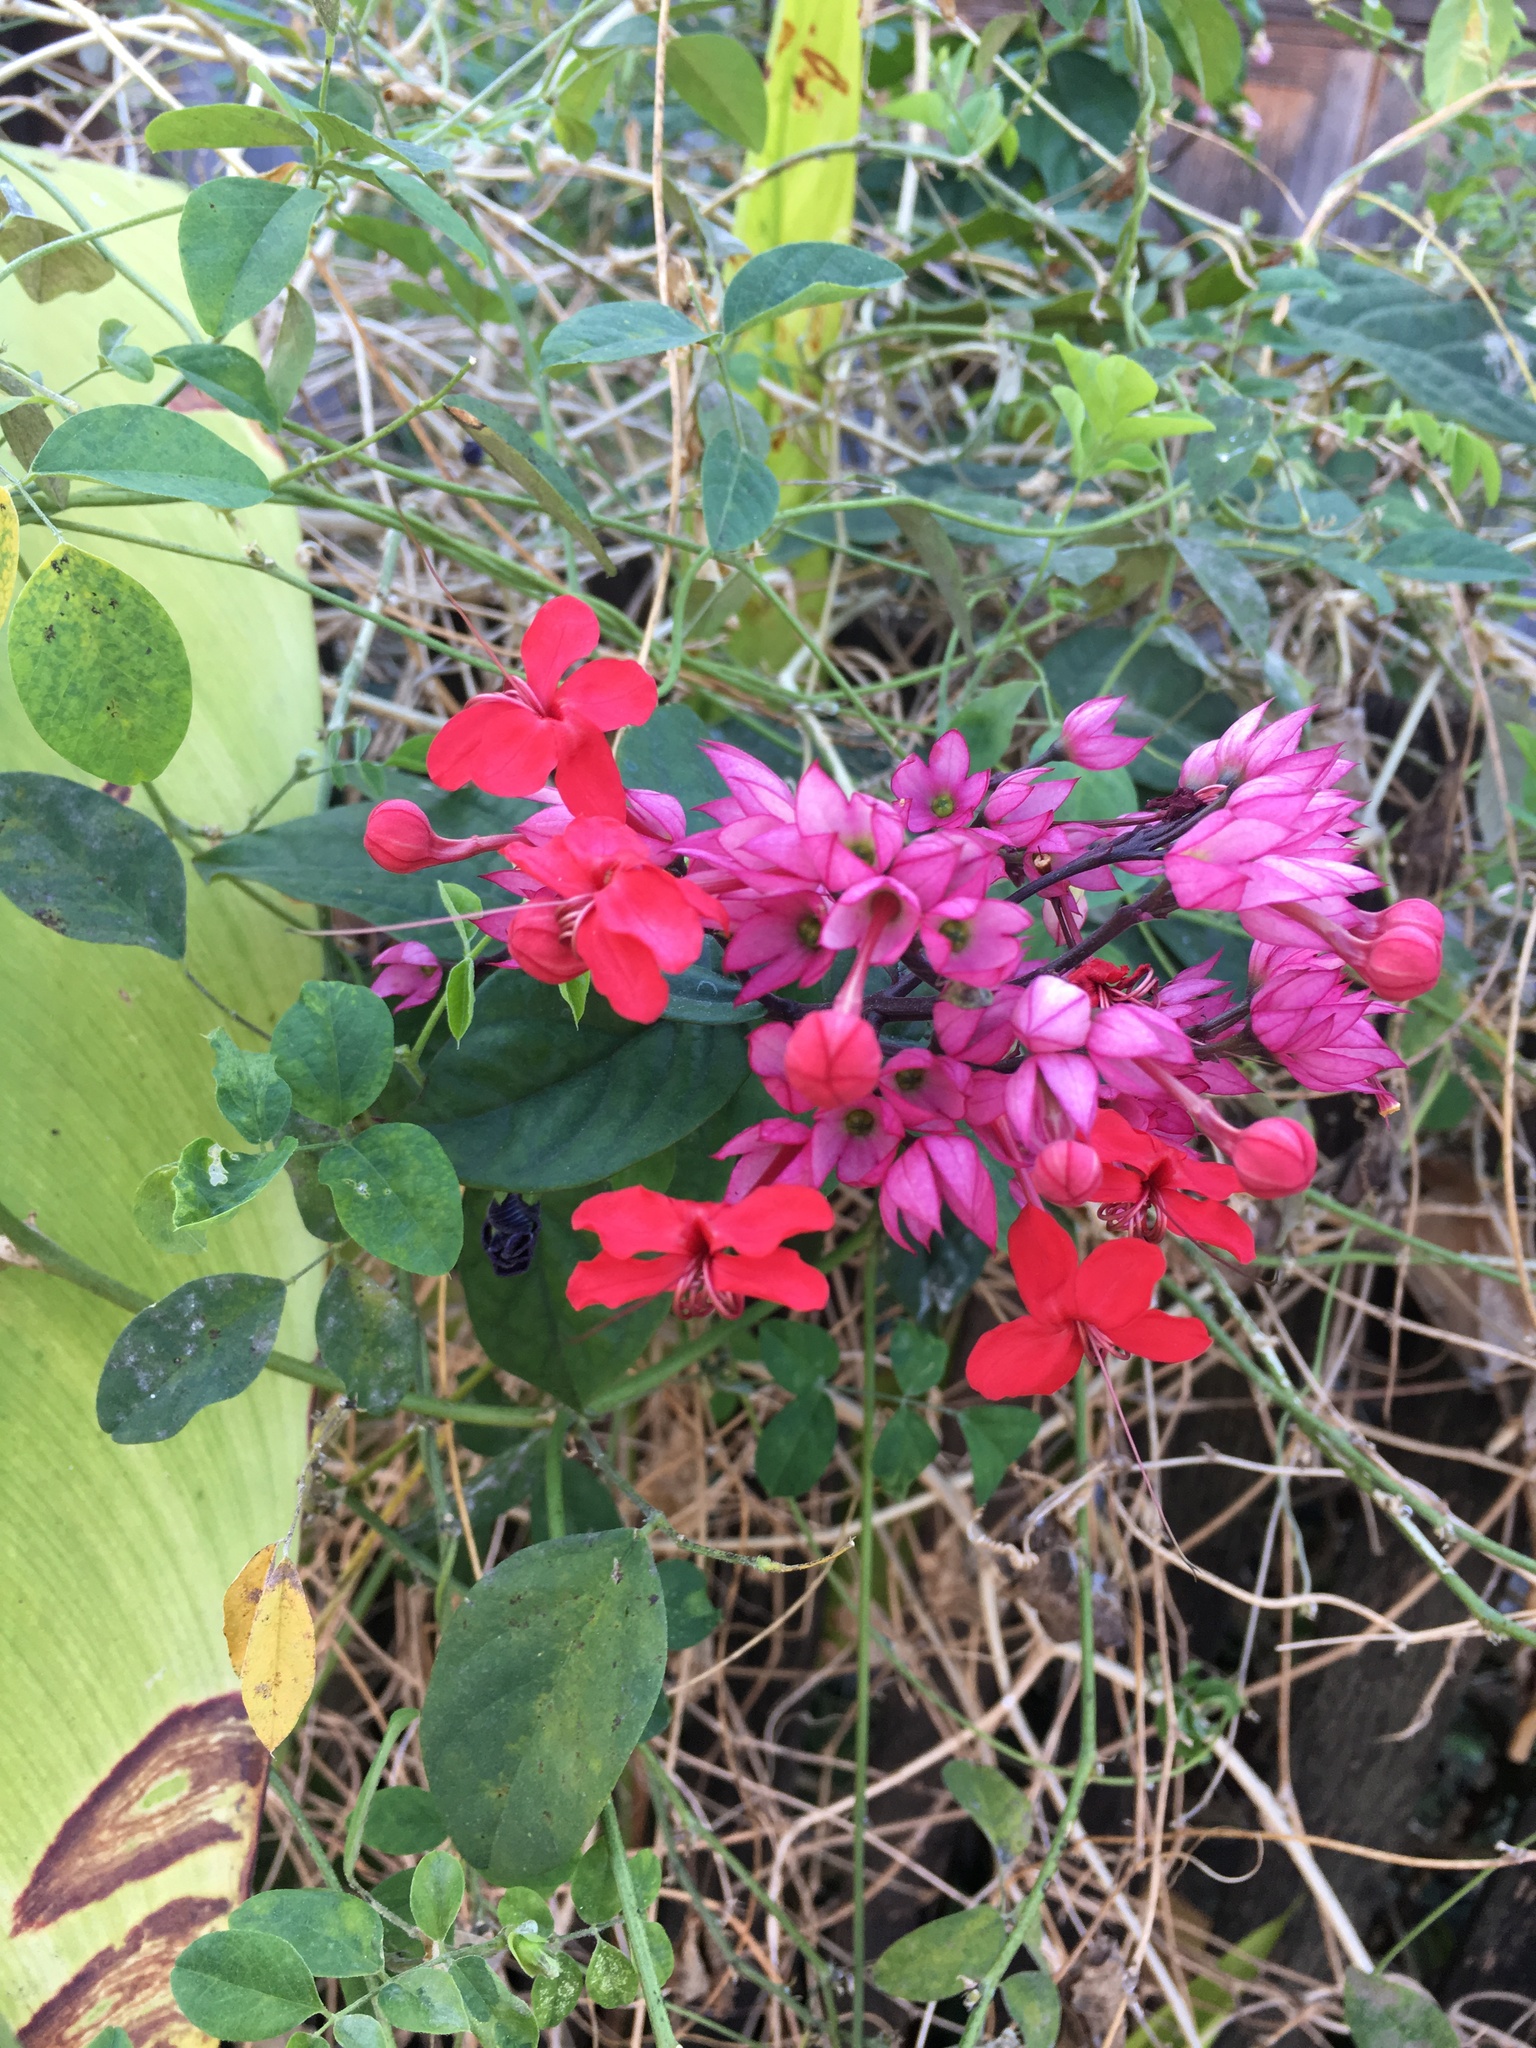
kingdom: Plantae
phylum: Tracheophyta
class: Magnoliopsida
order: Lamiales
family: Lamiaceae
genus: Clerodendrum
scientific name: Clerodendrum speciosum
